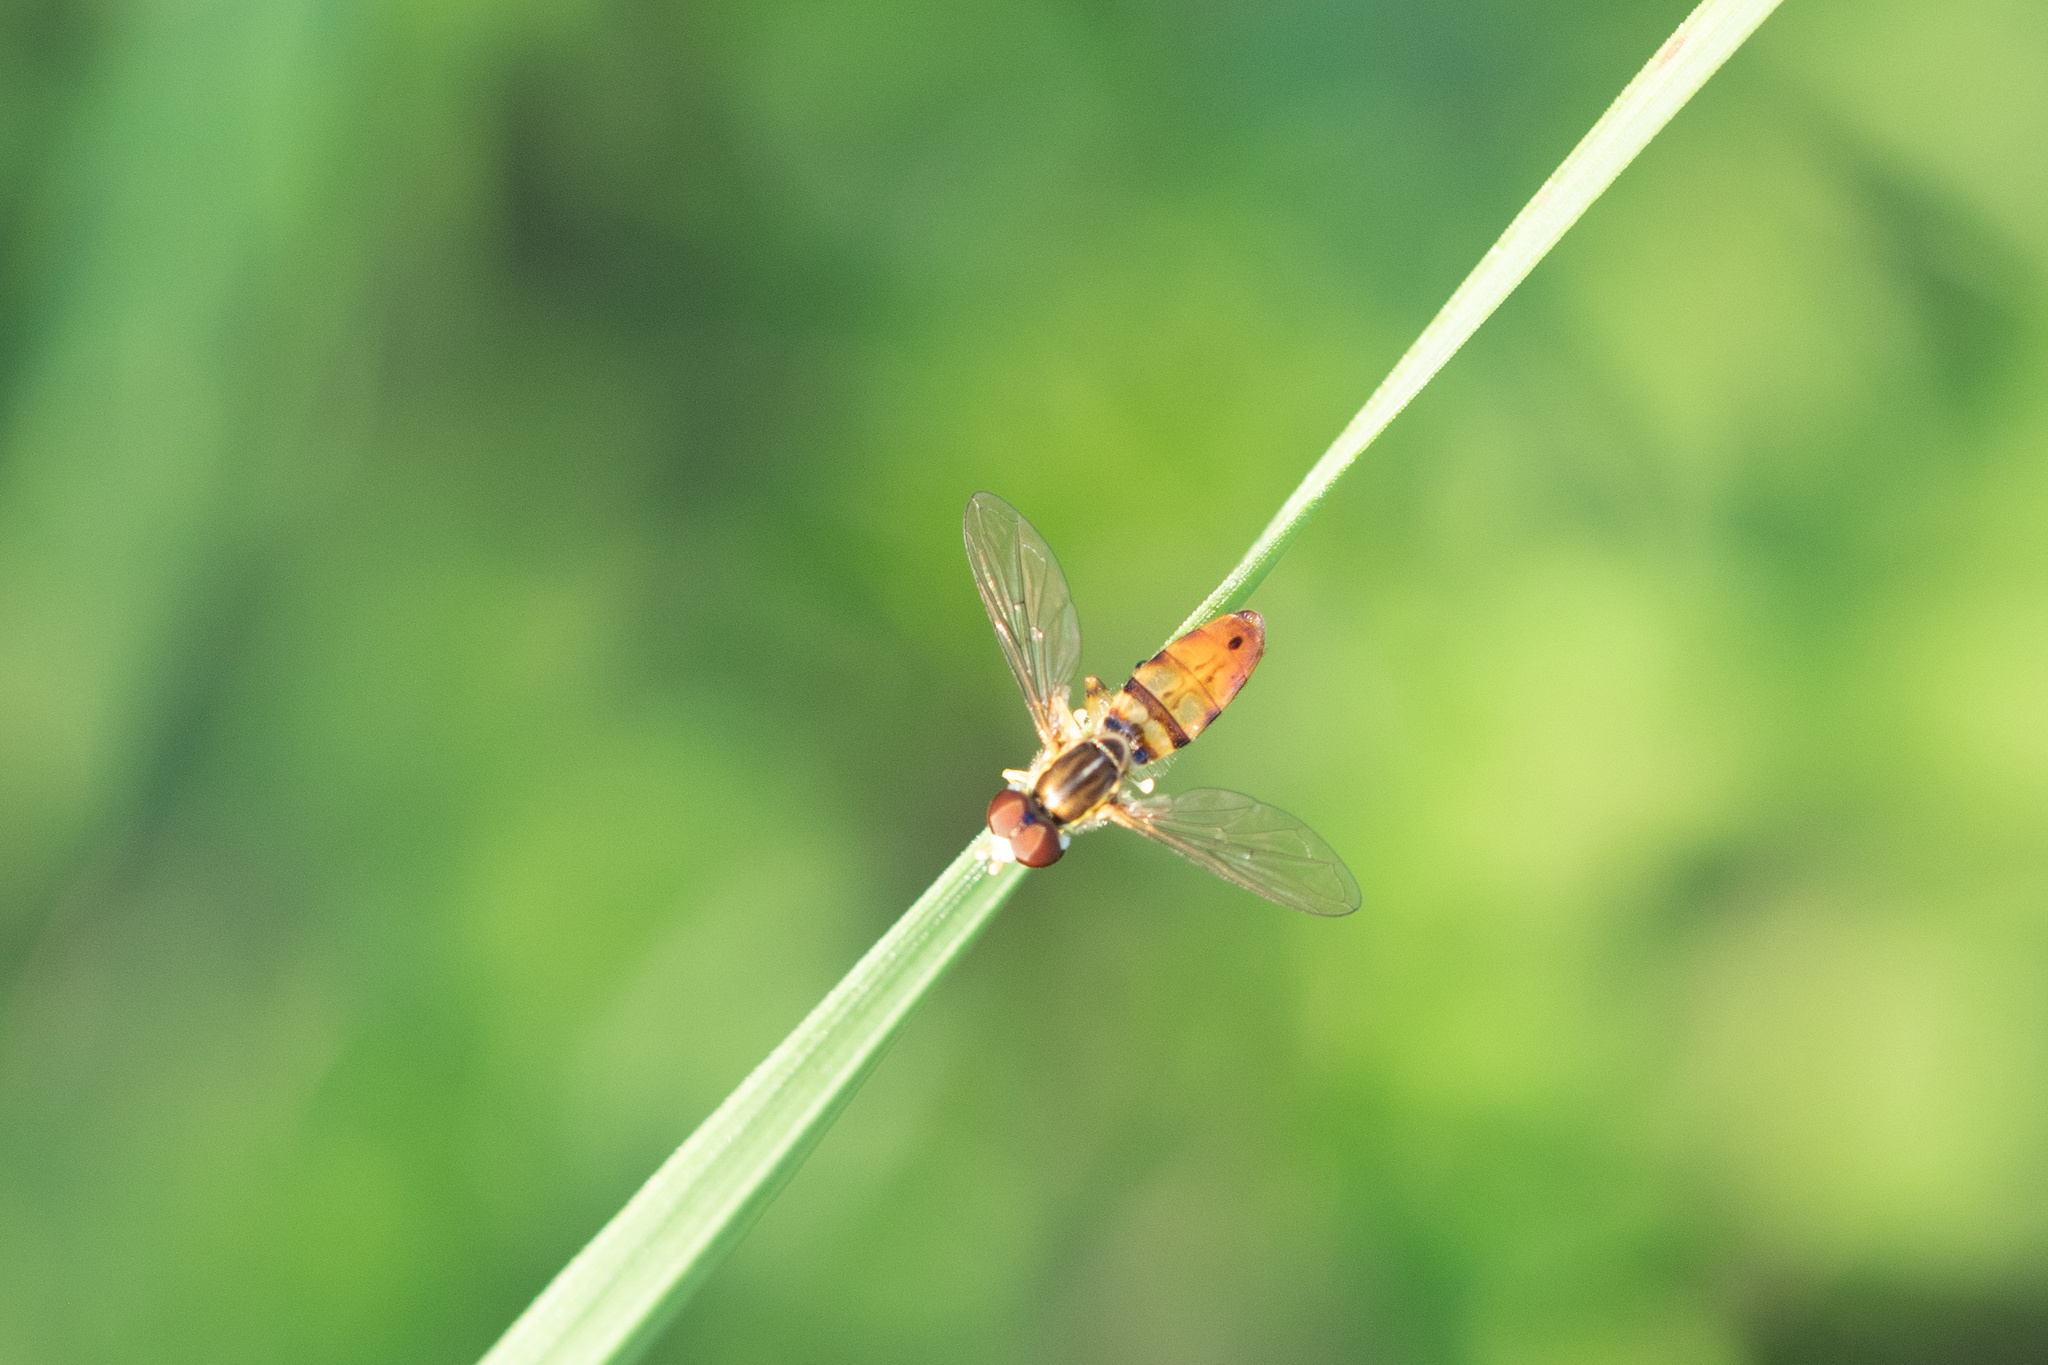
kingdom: Animalia
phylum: Arthropoda
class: Insecta
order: Diptera
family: Syrphidae
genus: Toxomerus
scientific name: Toxomerus floralis
